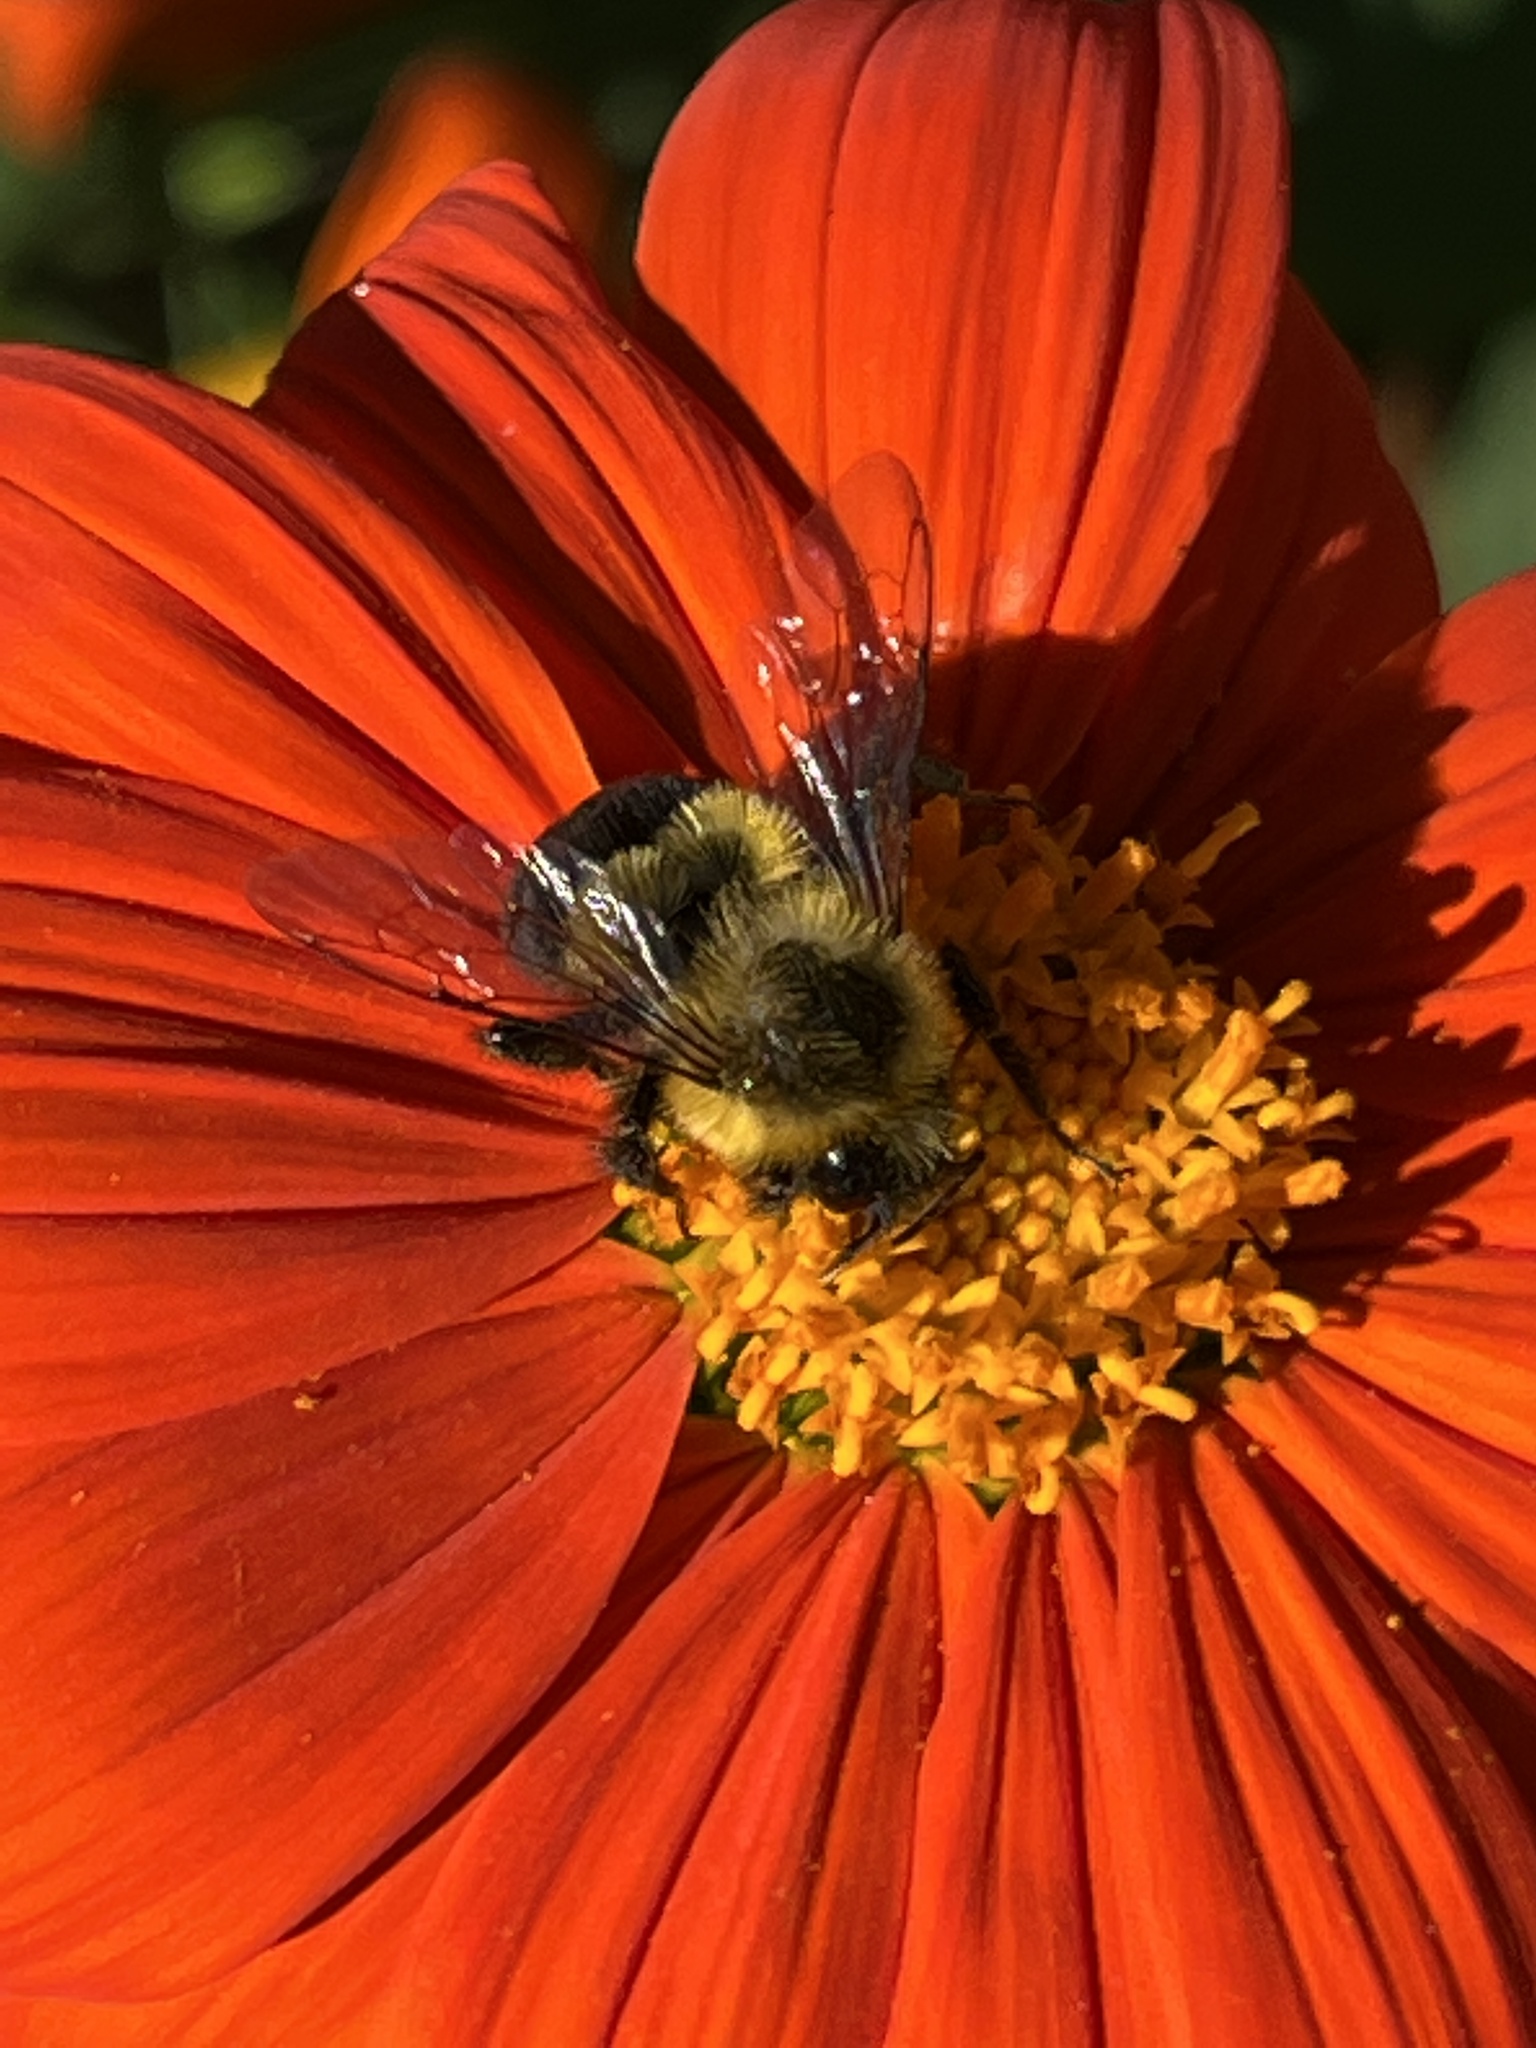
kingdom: Animalia
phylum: Arthropoda
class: Insecta
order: Hymenoptera
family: Apidae
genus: Bombus
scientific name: Bombus impatiens
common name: Common eastern bumble bee
